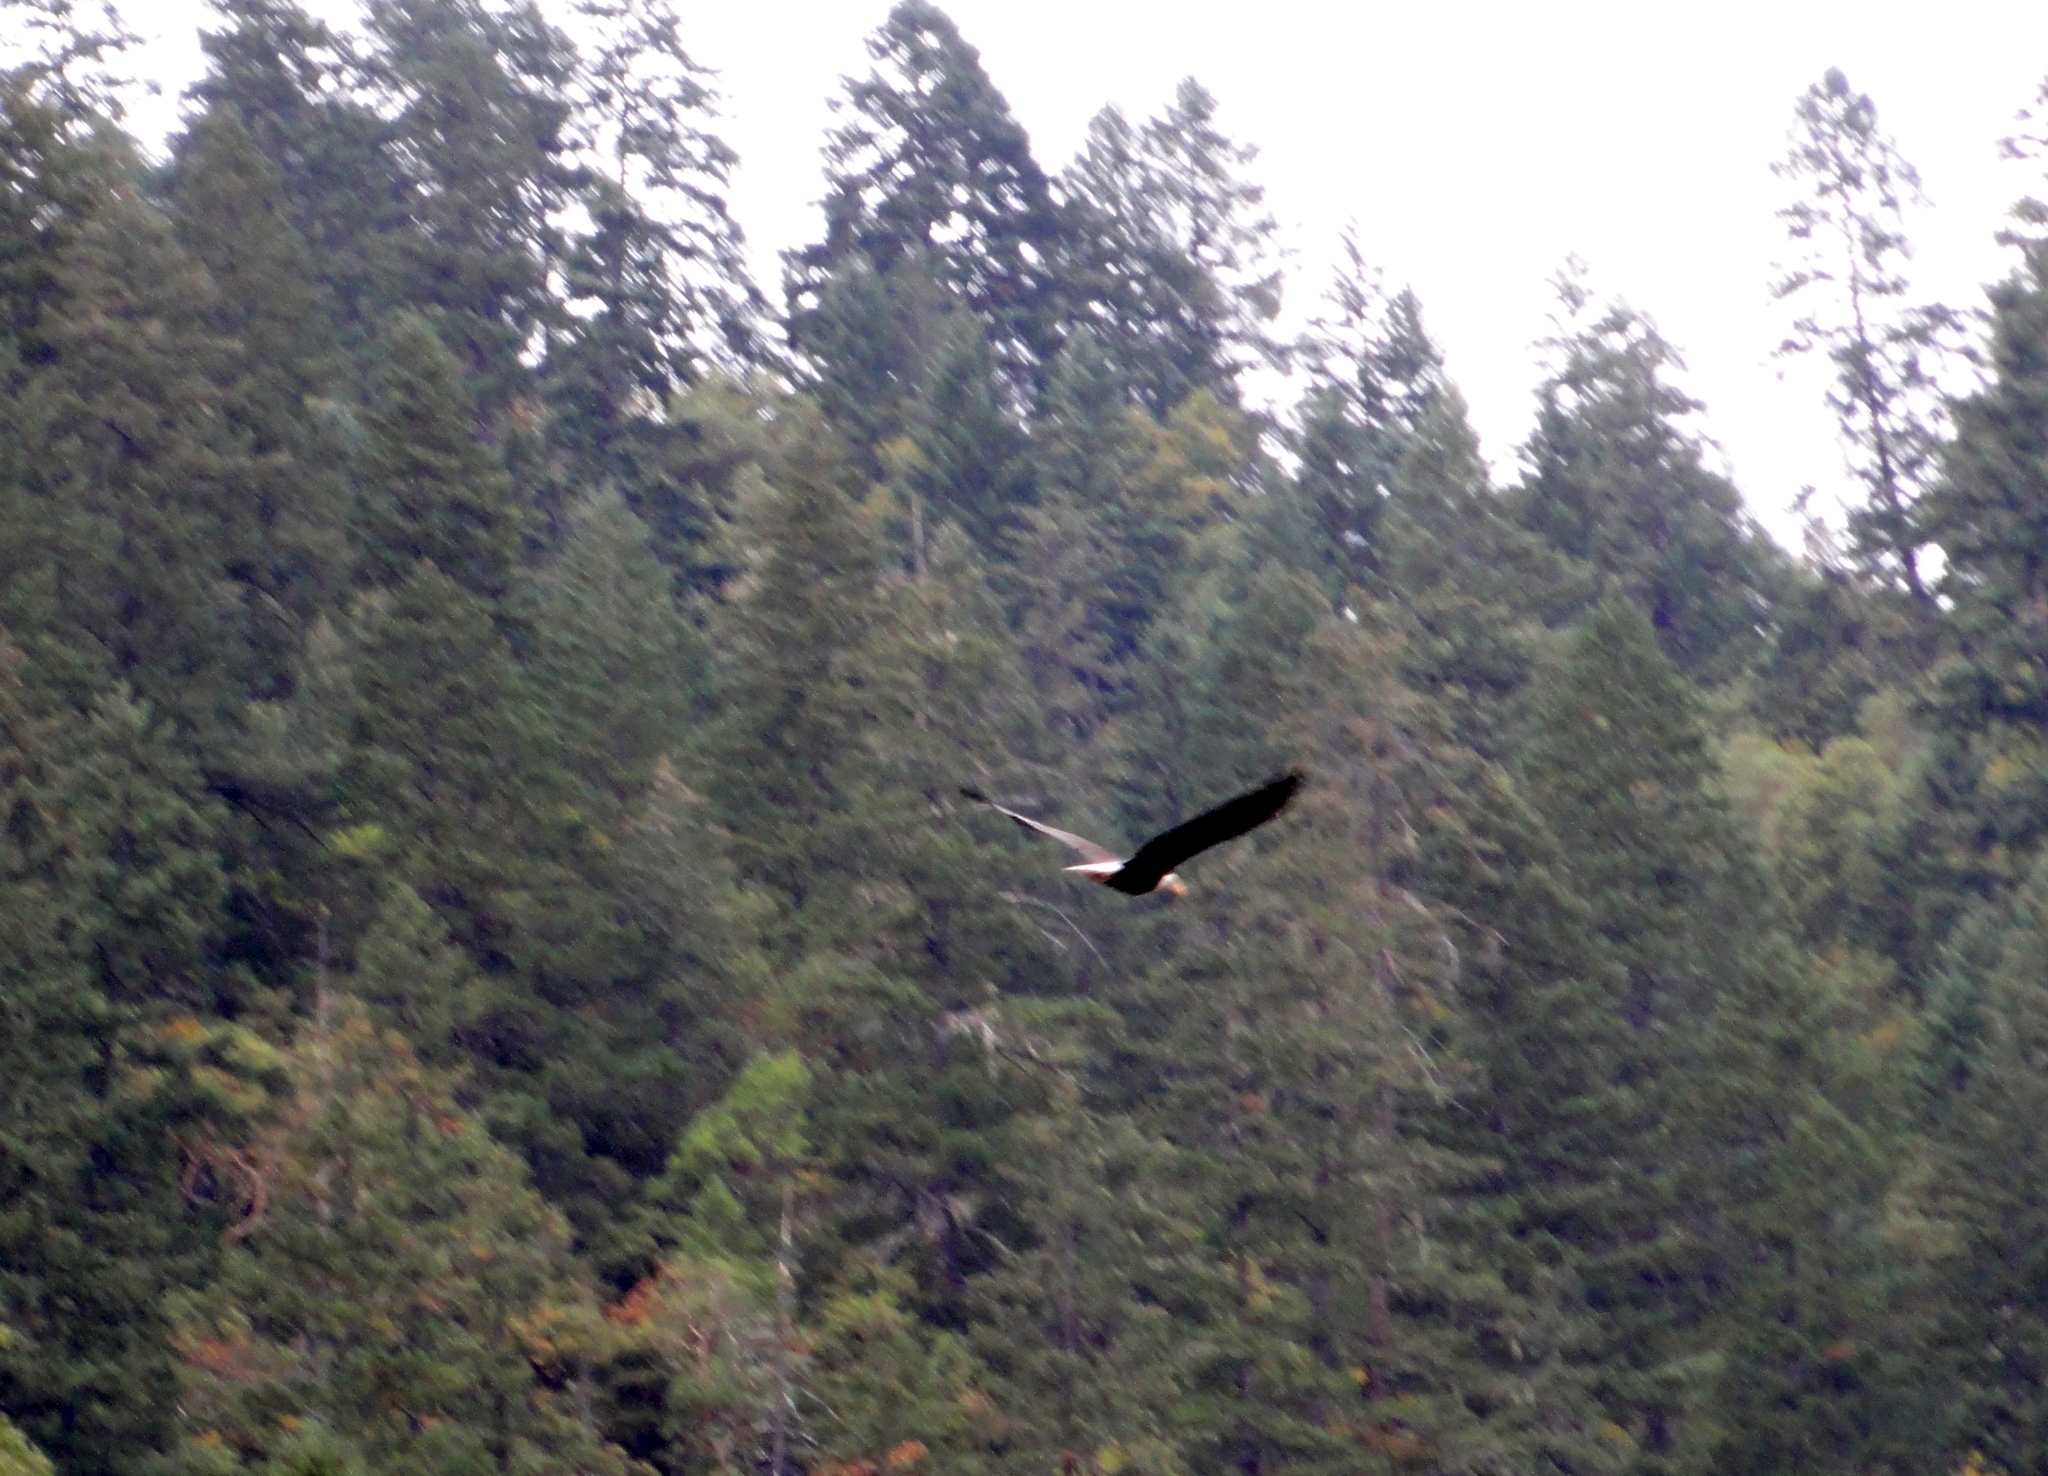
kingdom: Animalia
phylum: Chordata
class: Aves
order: Accipitriformes
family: Accipitridae
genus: Haliaeetus
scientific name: Haliaeetus leucocephalus
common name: Bald eagle
